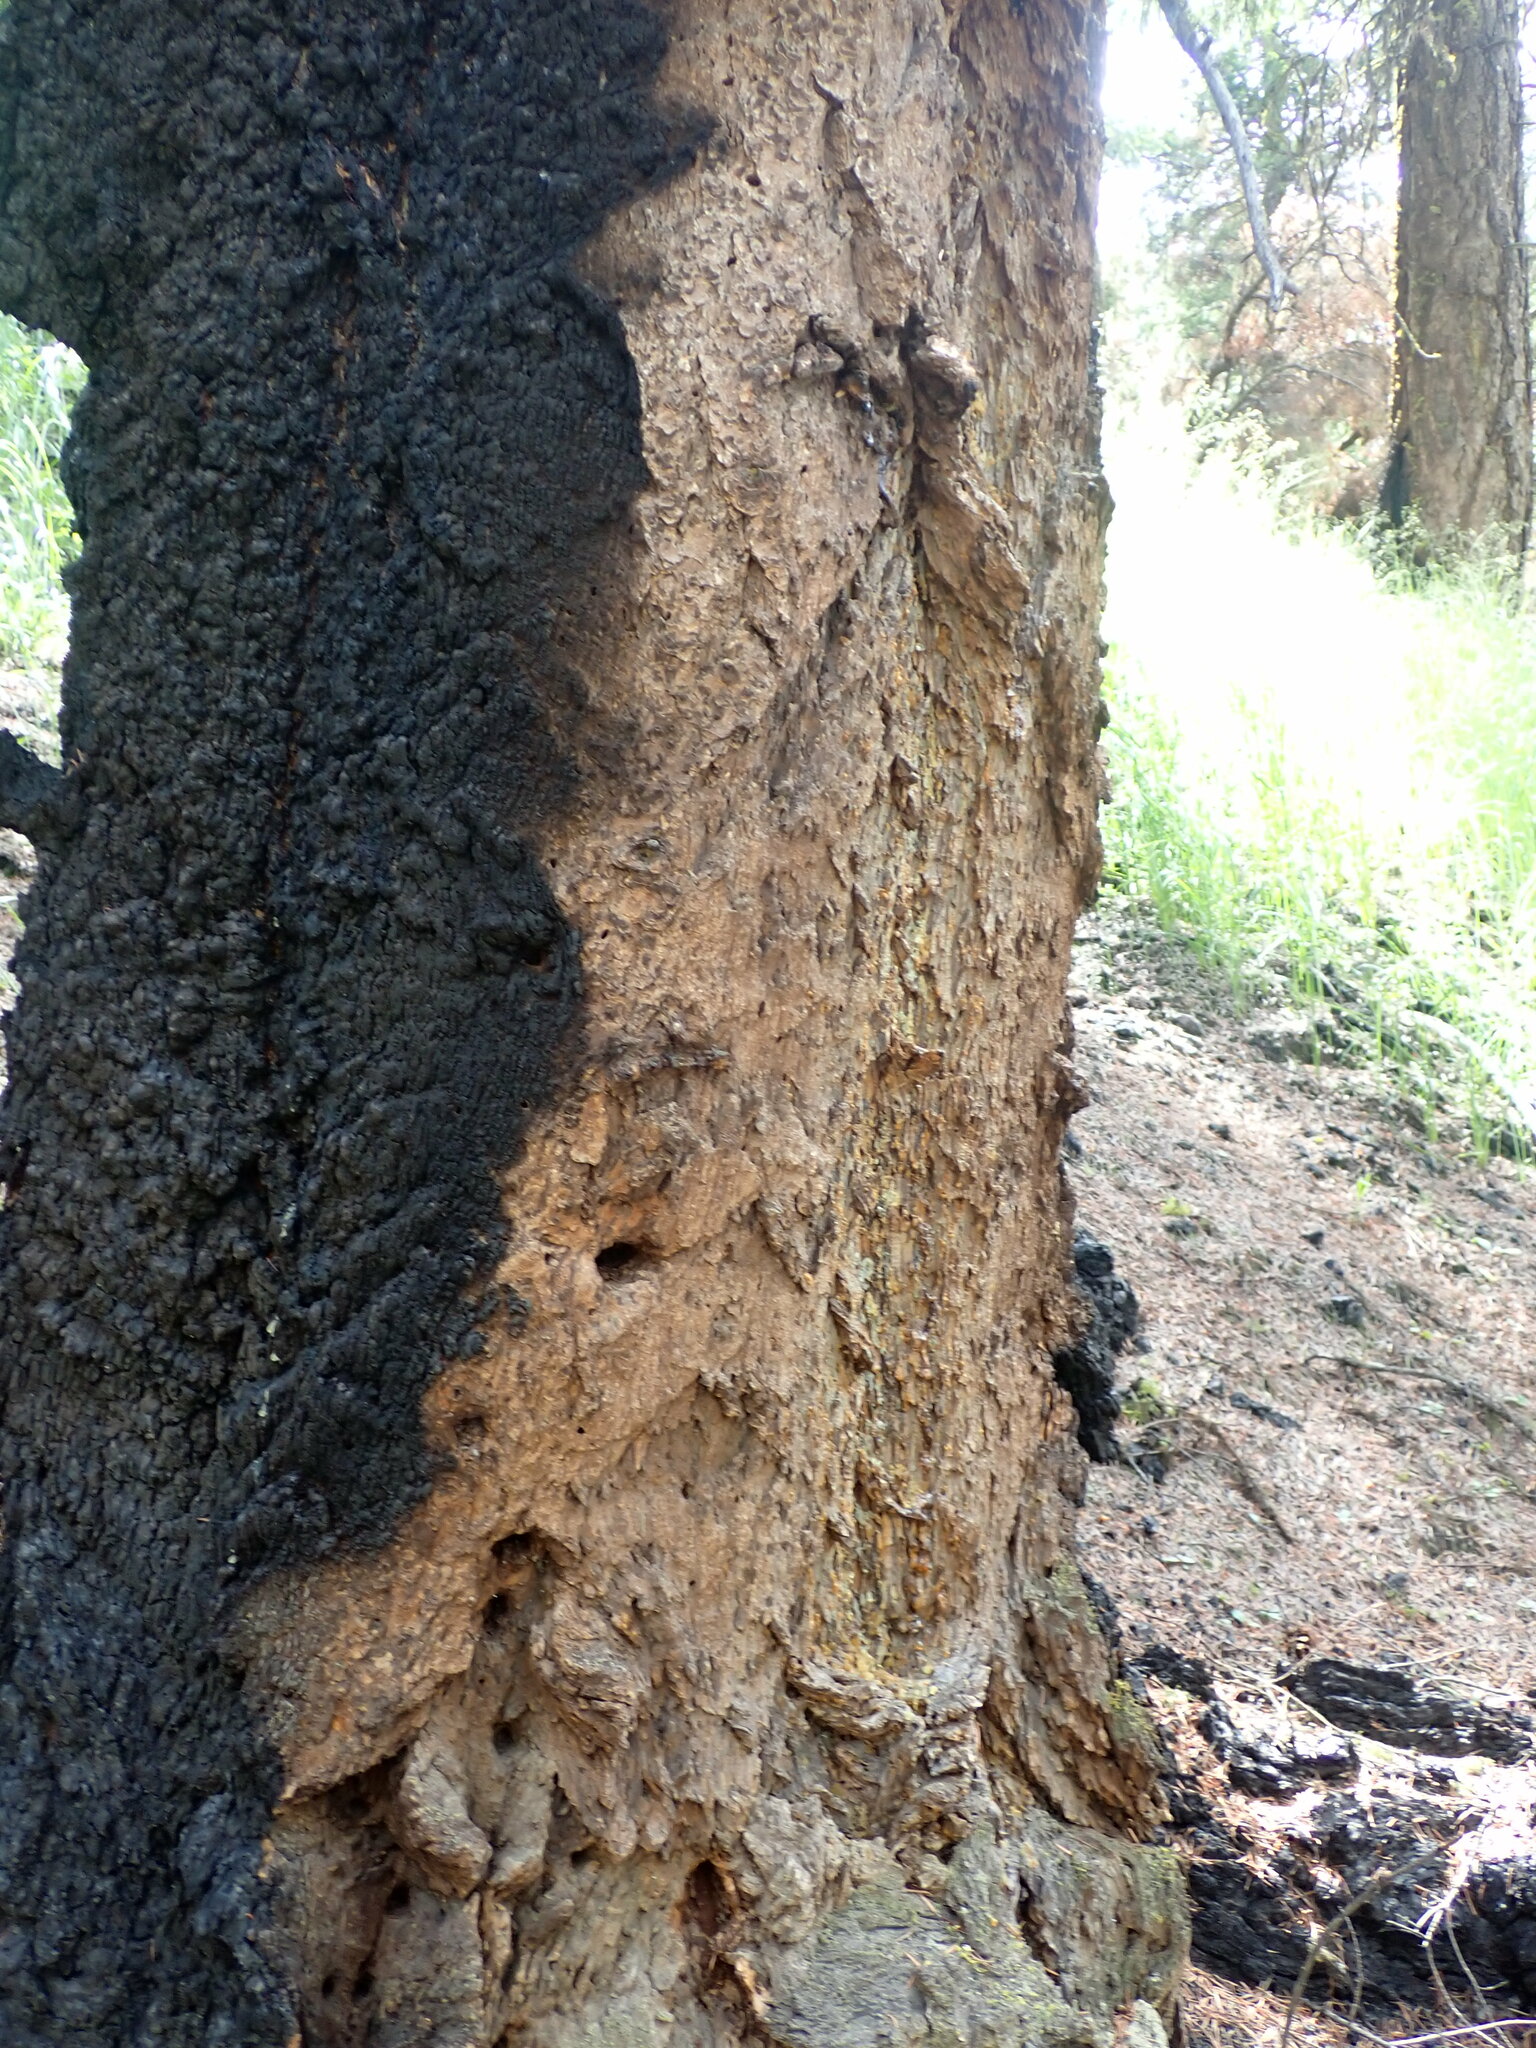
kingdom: Plantae
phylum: Tracheophyta
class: Pinopsida
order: Pinales
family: Pinaceae
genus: Pseudotsuga
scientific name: Pseudotsuga menziesii
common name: Douglas fir
